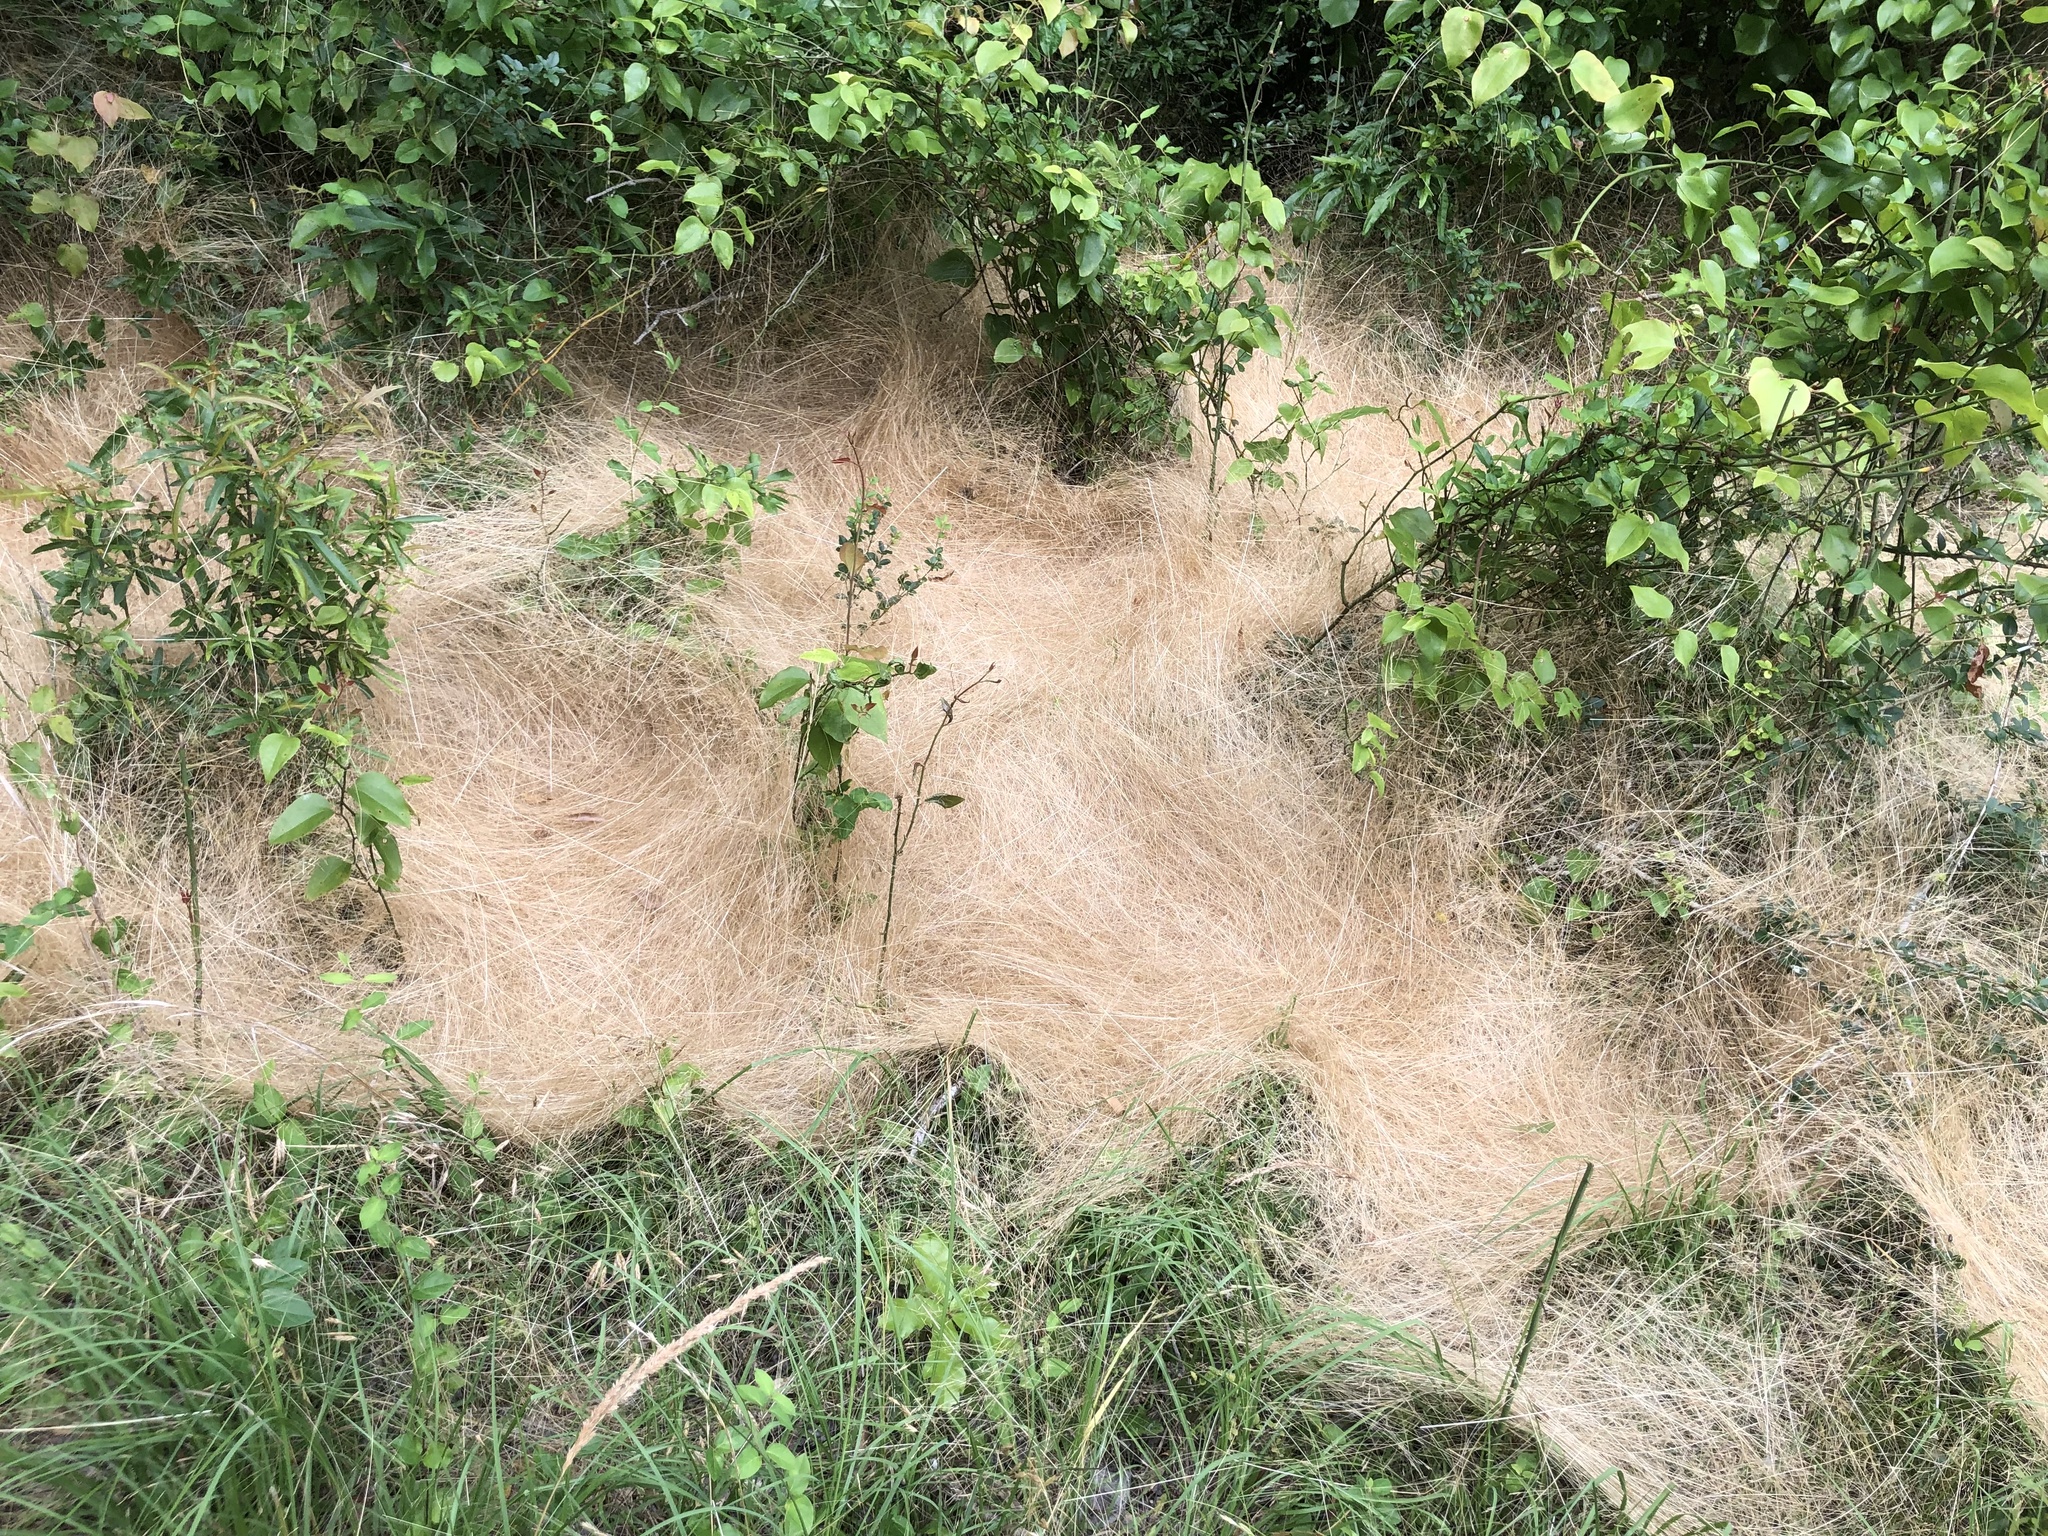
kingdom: Plantae
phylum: Tracheophyta
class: Liliopsida
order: Poales
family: Poaceae
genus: Agrostis
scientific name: Agrostis hyemalis
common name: Small bent
